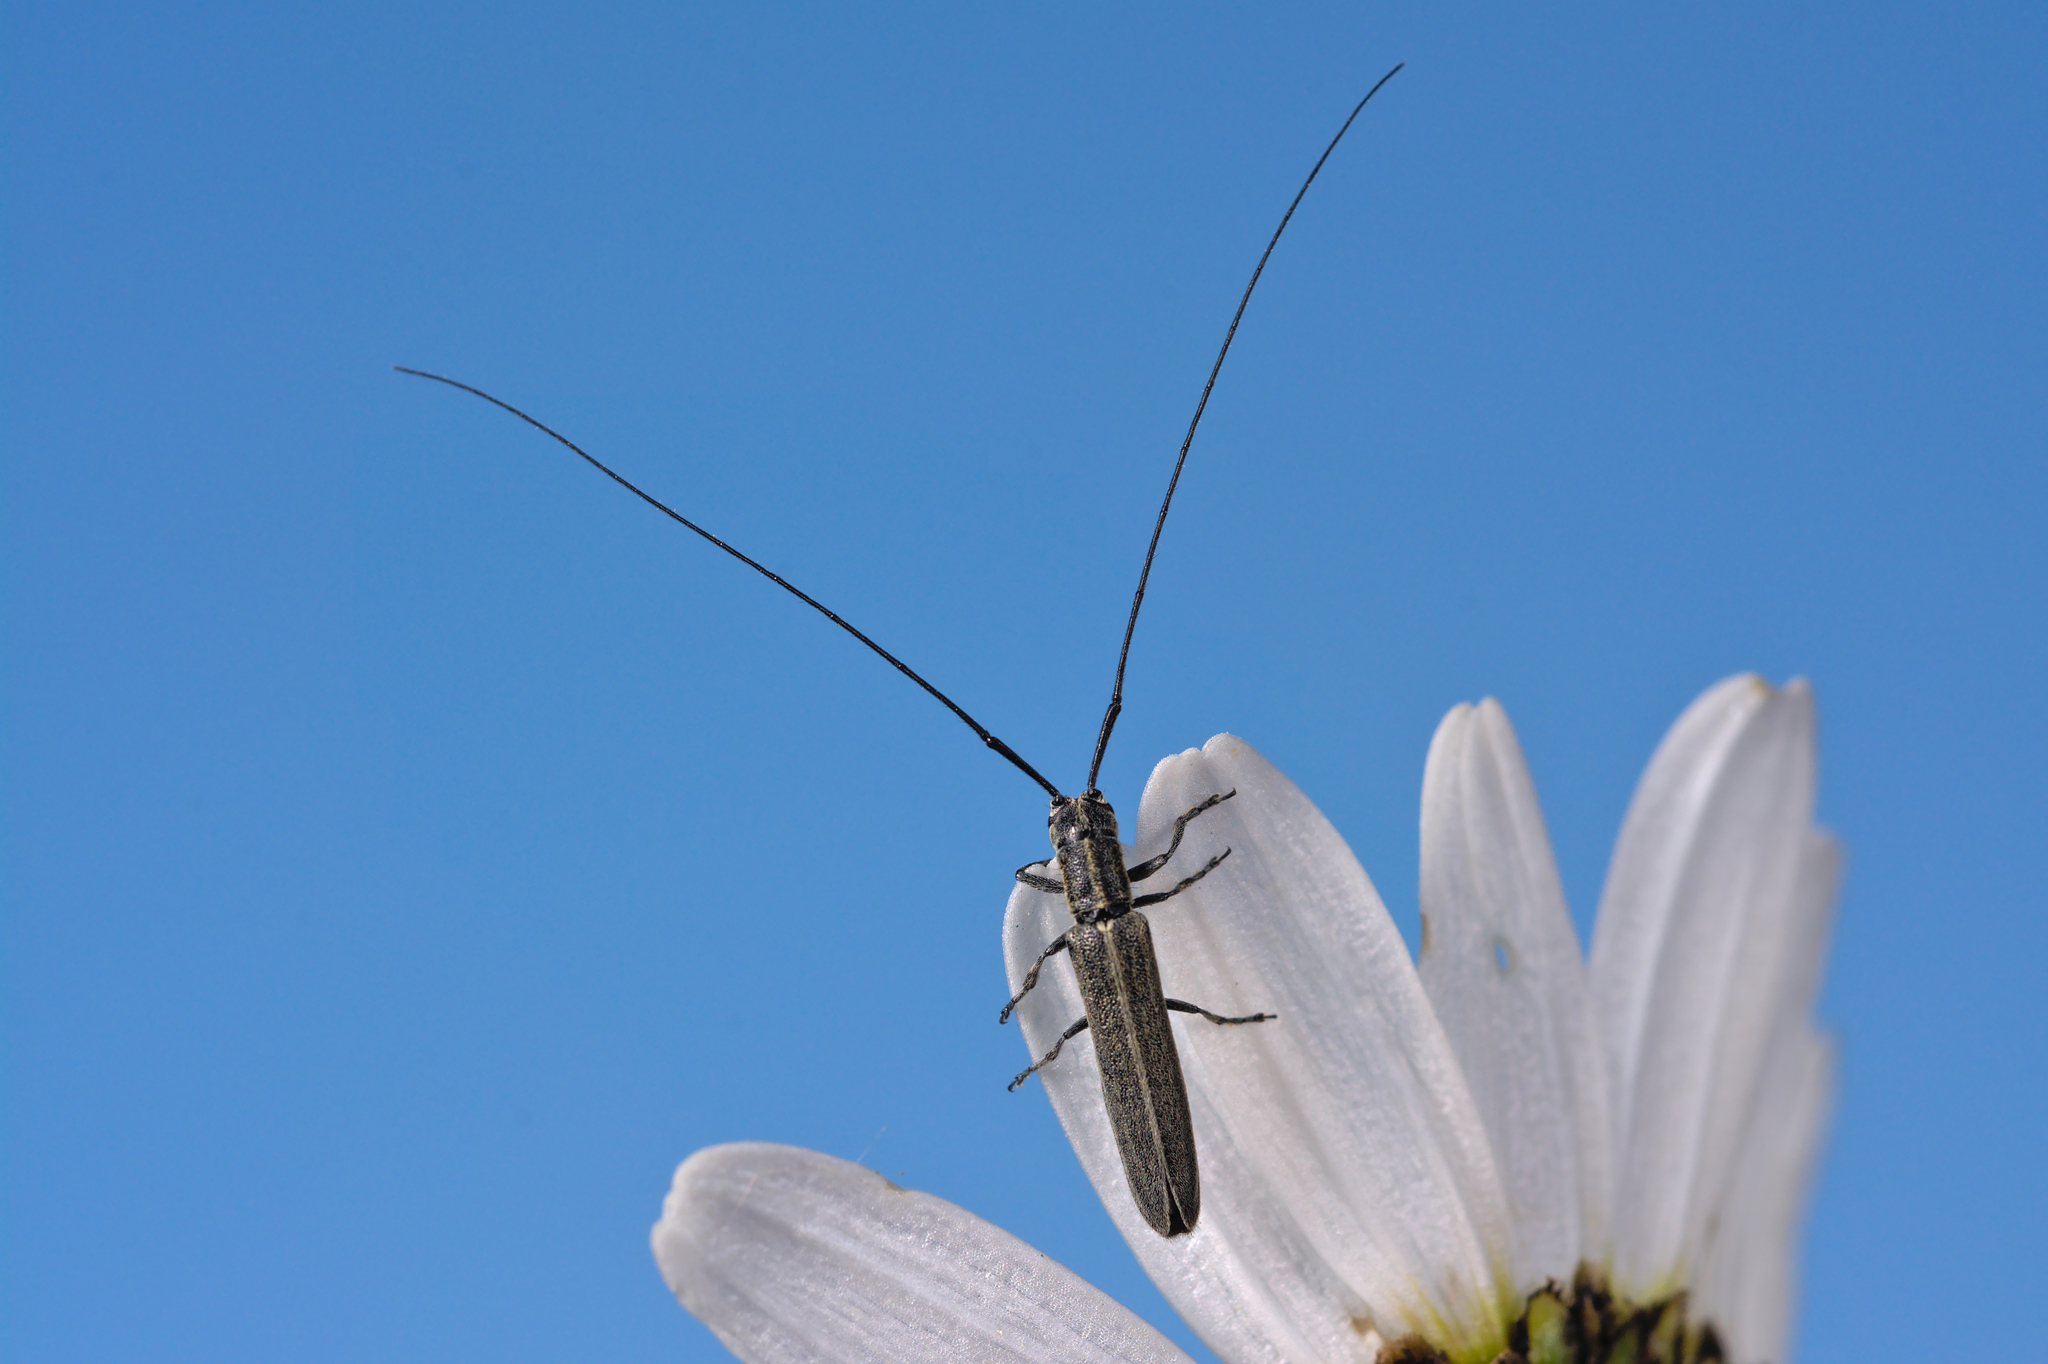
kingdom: Animalia
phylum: Arthropoda
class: Insecta
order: Coleoptera
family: Cerambycidae
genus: Calamobius
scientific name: Calamobius filum
